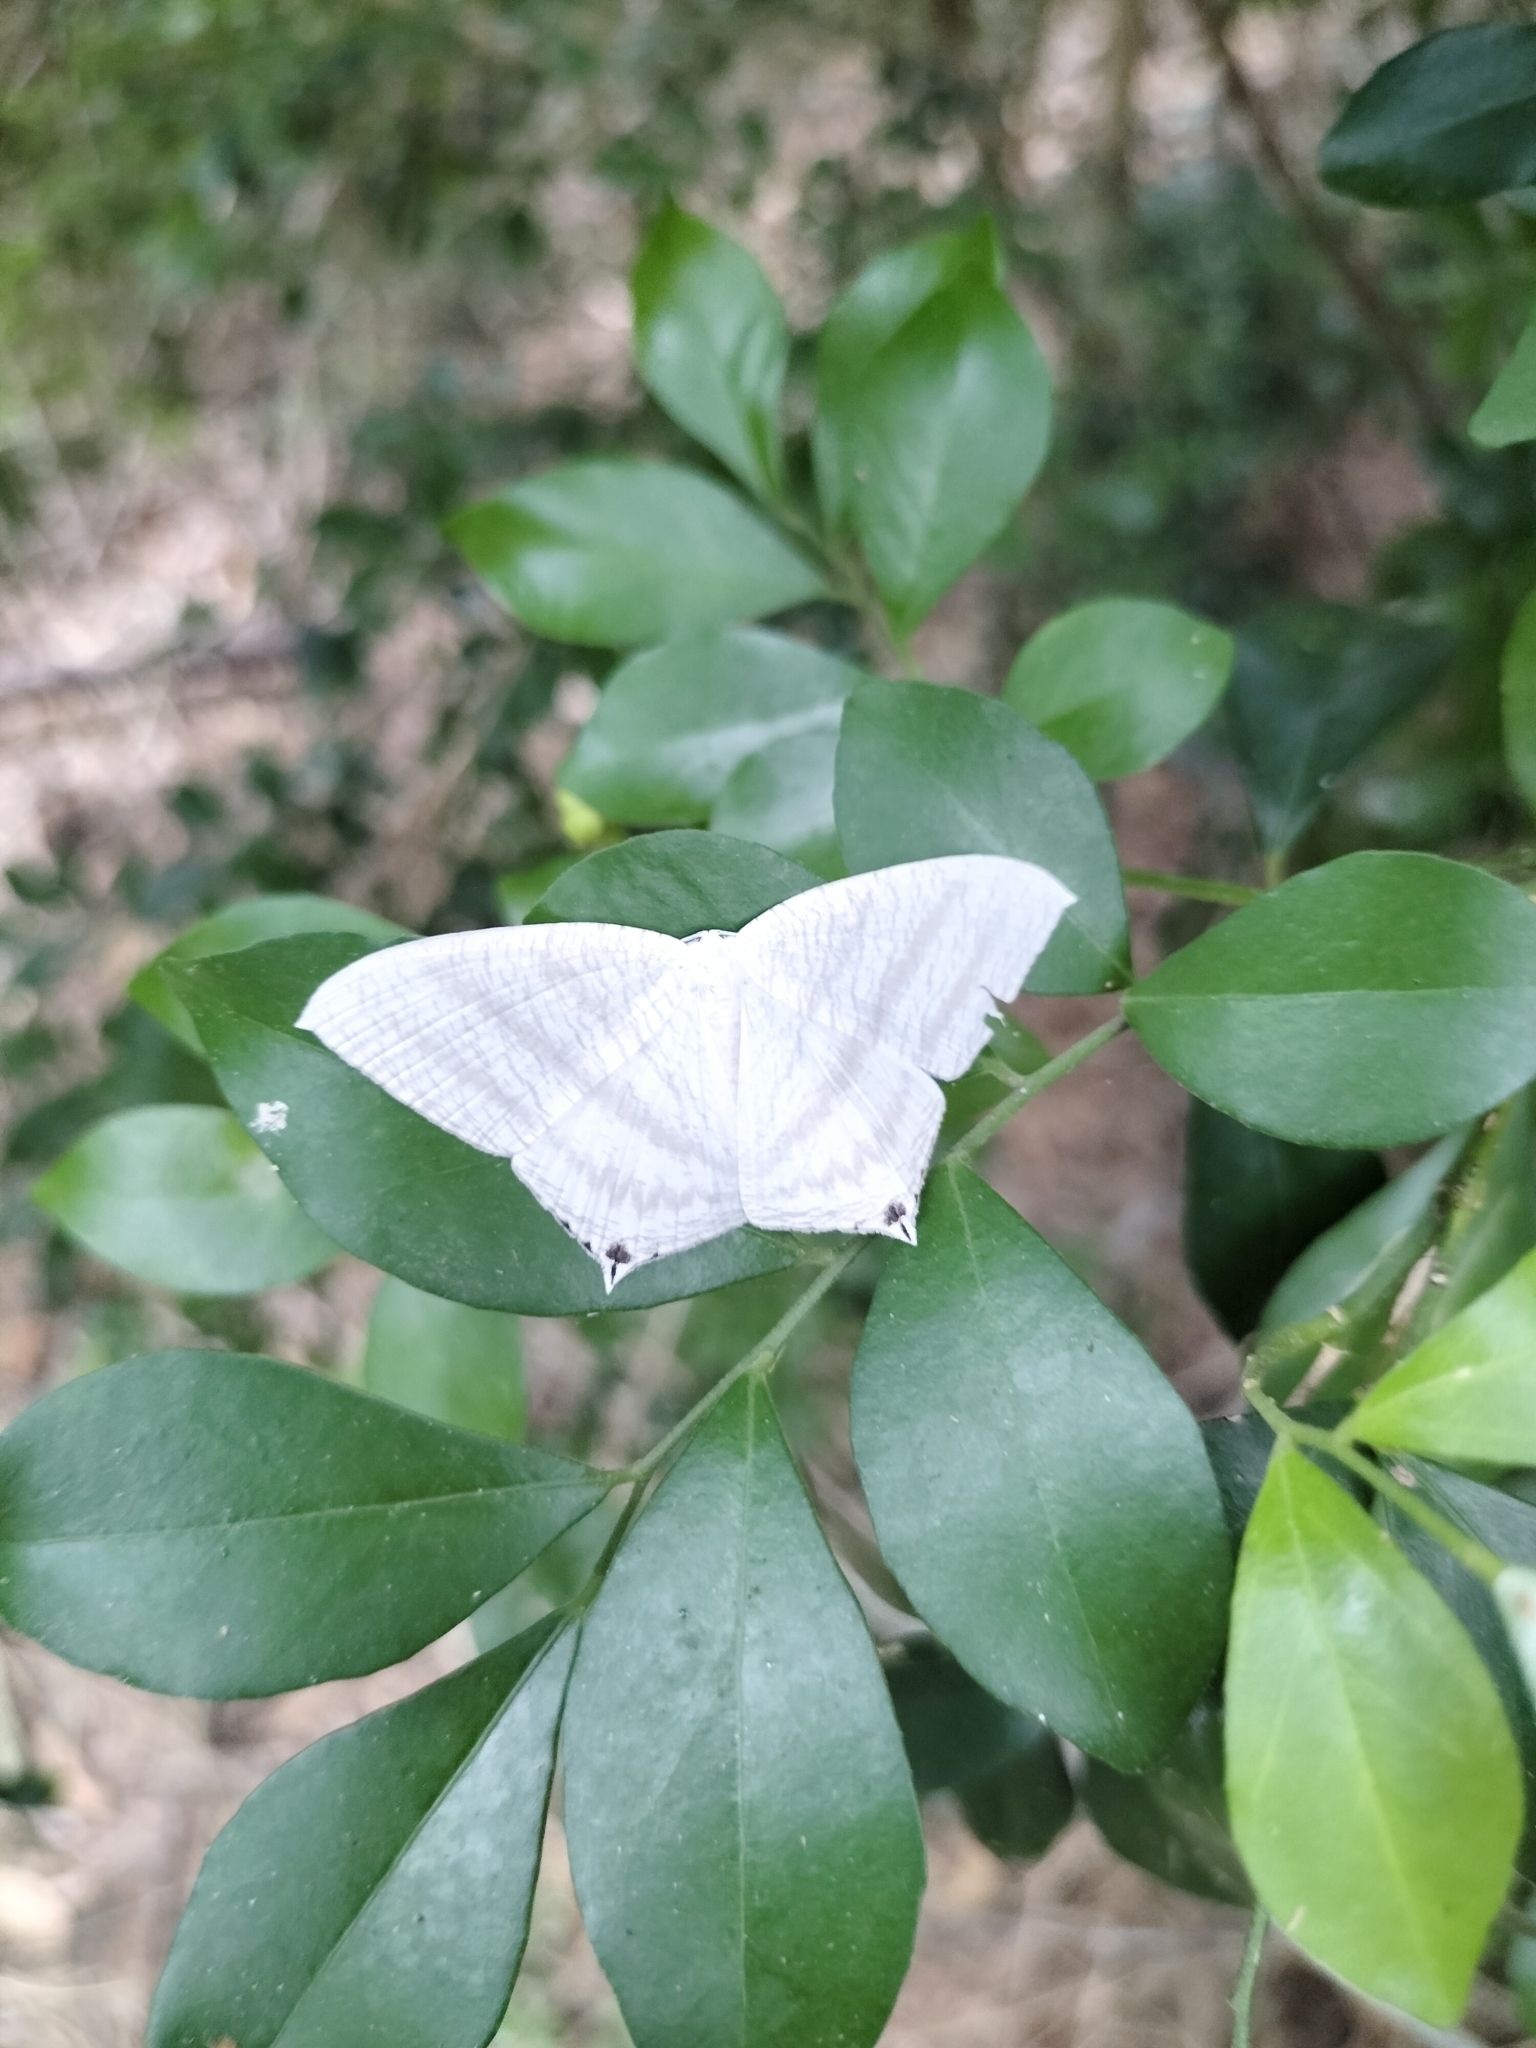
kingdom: Animalia
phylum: Arthropoda
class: Insecta
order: Lepidoptera
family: Uraniidae
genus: Micronia
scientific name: Micronia aculeata
